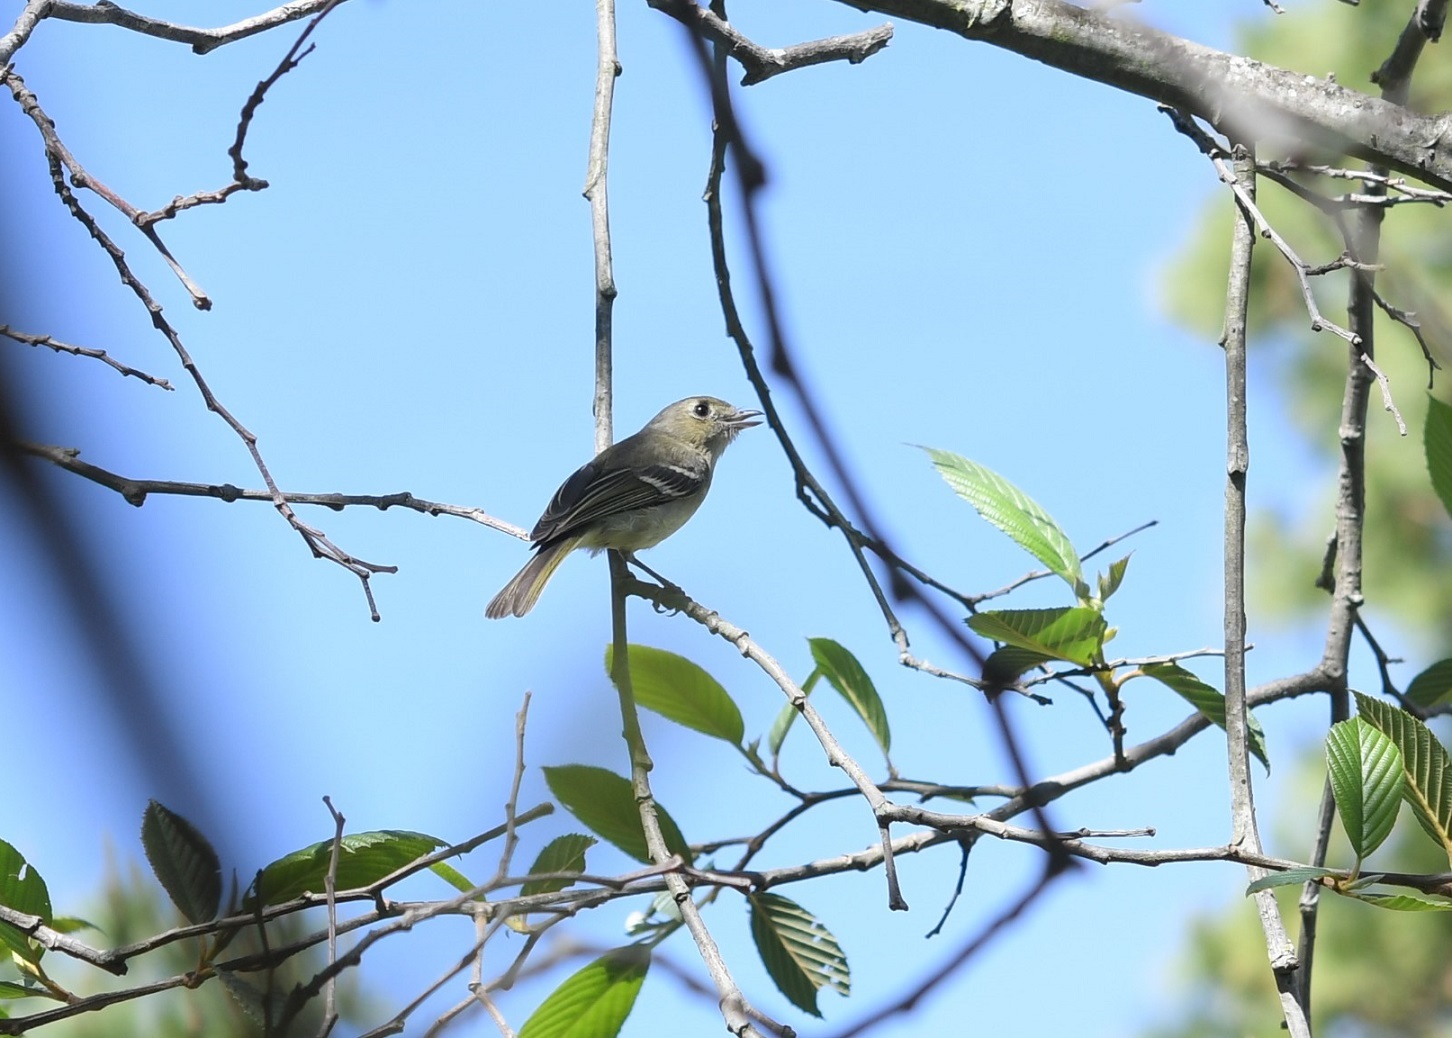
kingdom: Animalia
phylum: Chordata
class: Aves
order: Passeriformes
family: Vireonidae
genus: Vireo
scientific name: Vireo huttoni
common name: Hutton's vireo
